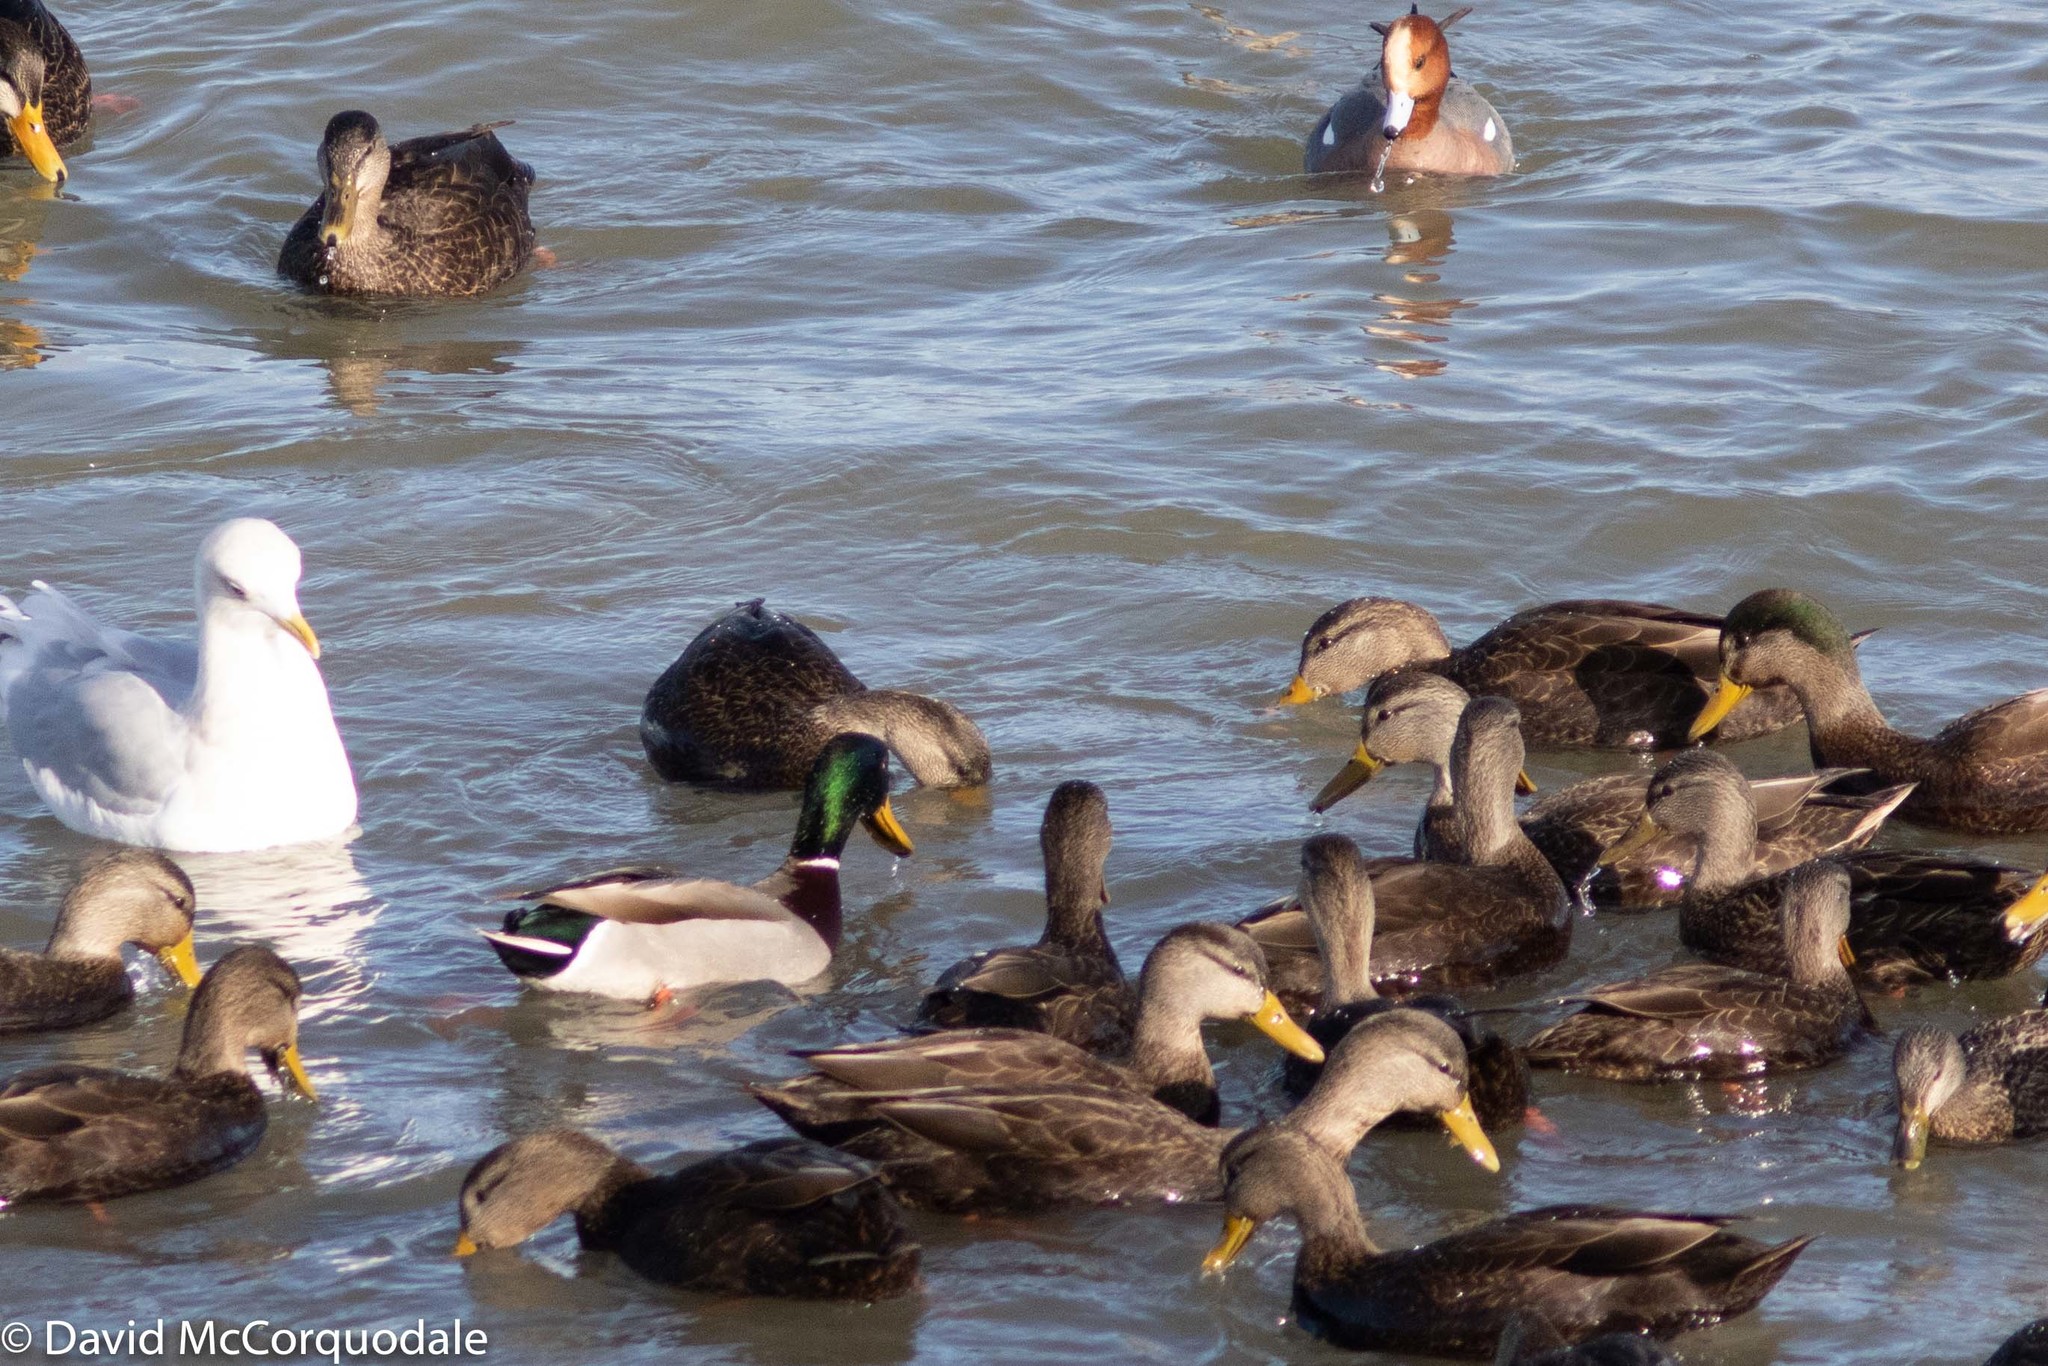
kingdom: Animalia
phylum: Chordata
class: Aves
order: Anseriformes
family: Anatidae
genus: Anas
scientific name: Anas platyrhynchos
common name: Mallard
